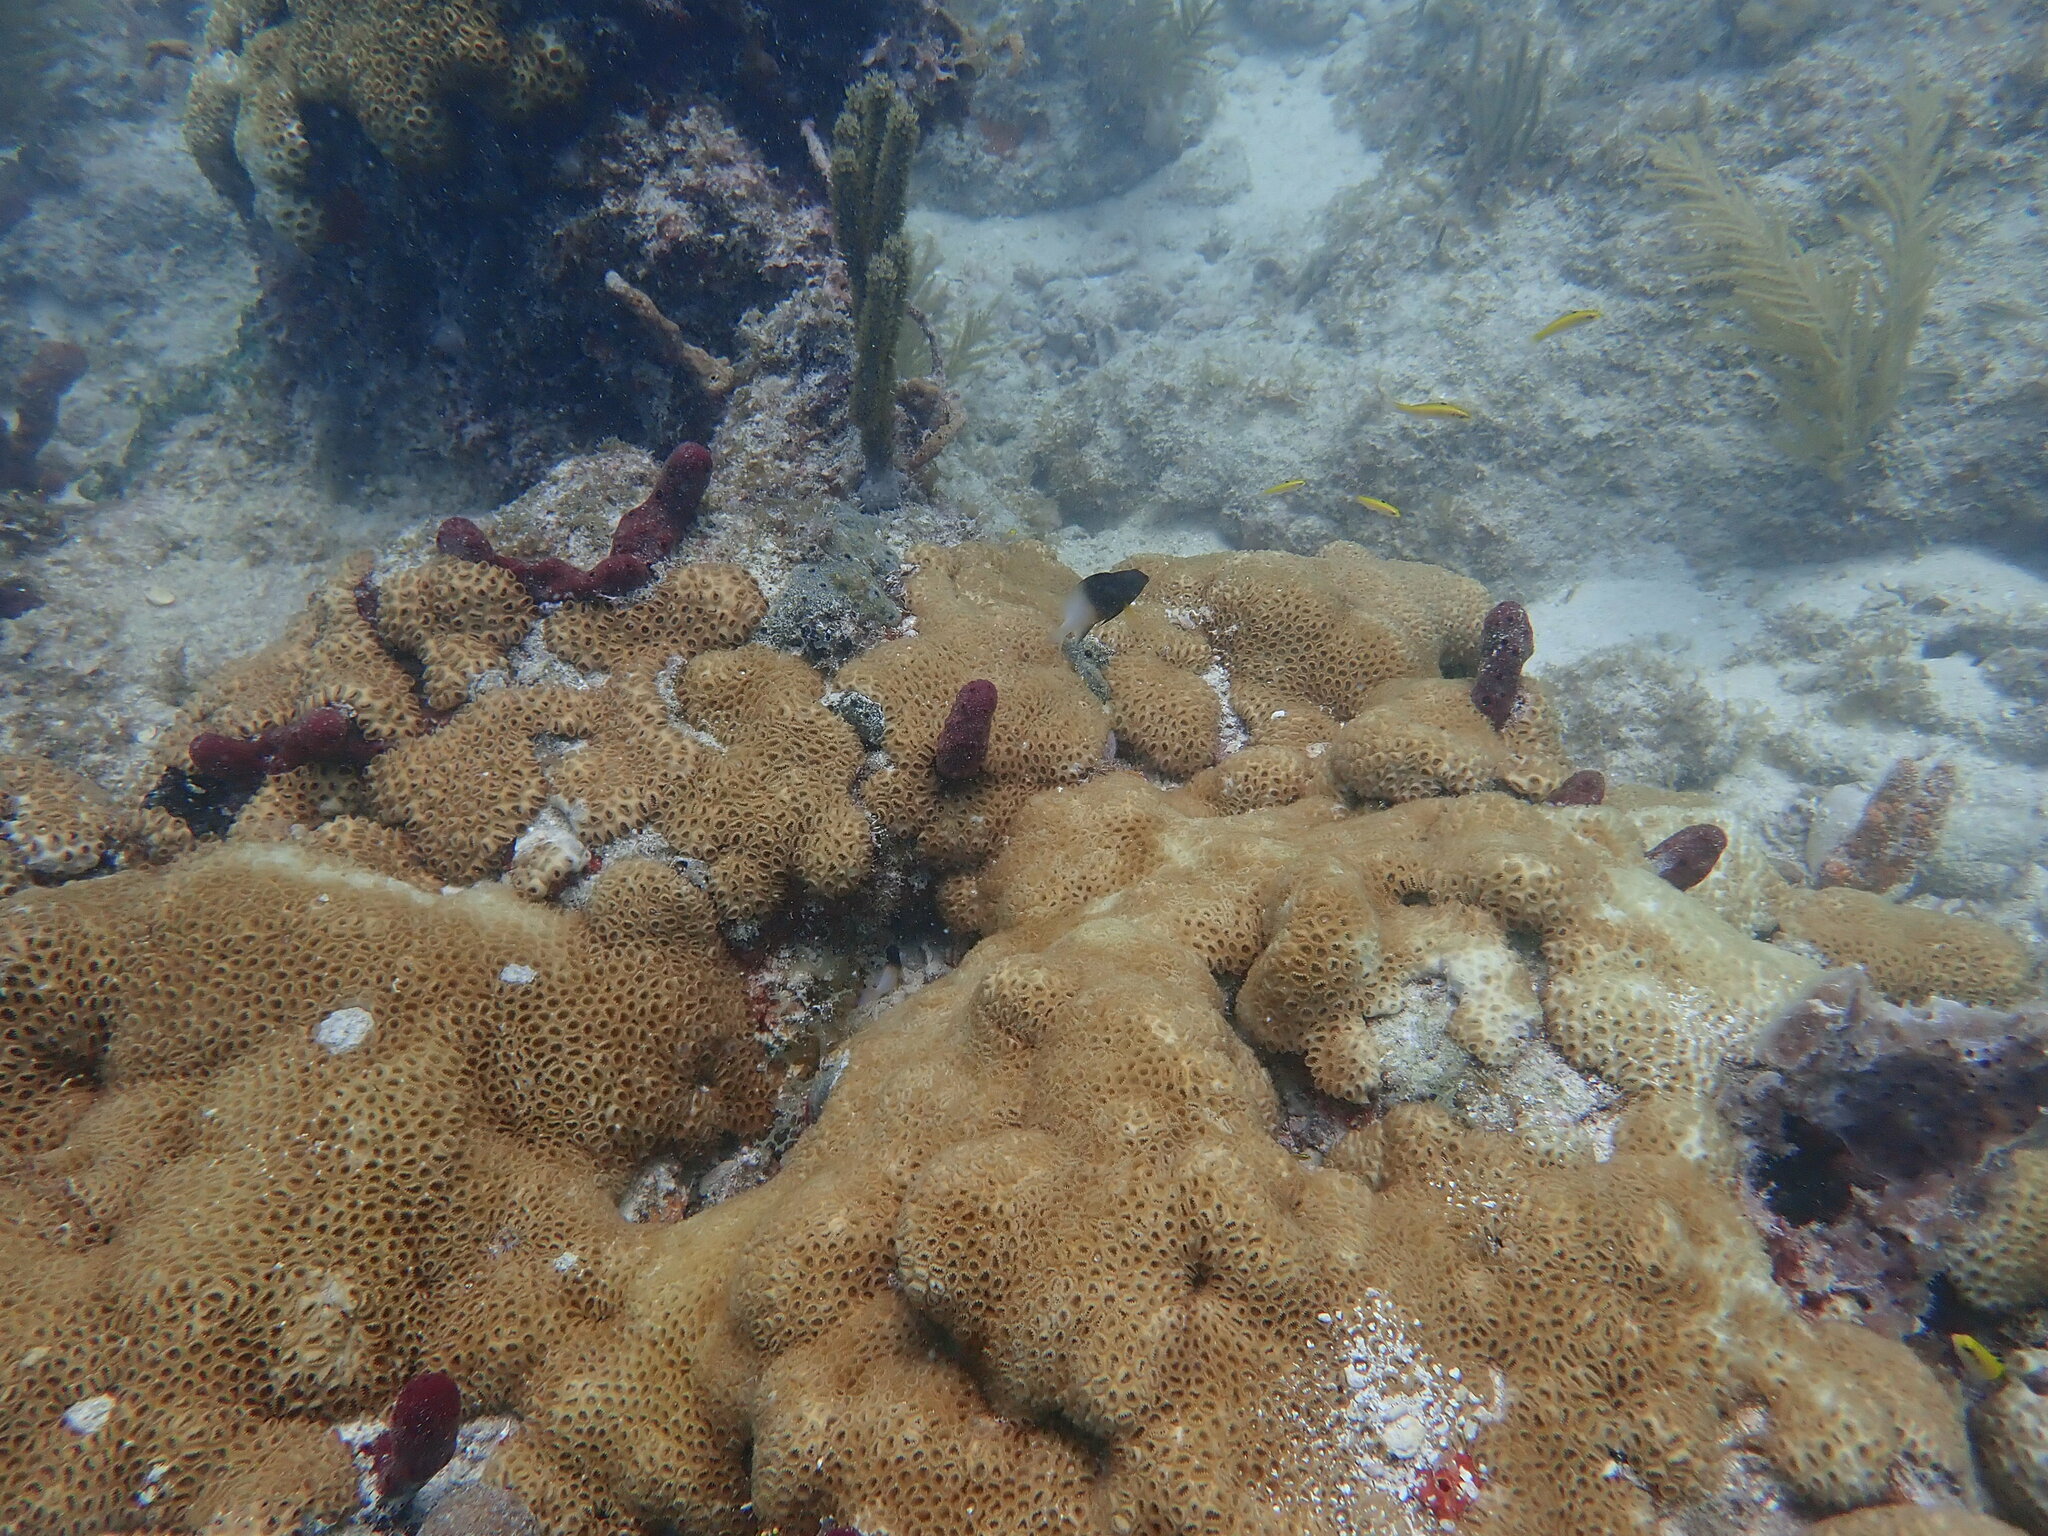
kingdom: Animalia
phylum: Chordata
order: Perciformes
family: Pomacentridae
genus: Stegastes
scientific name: Stegastes partitus
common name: Bicolor damselfish
